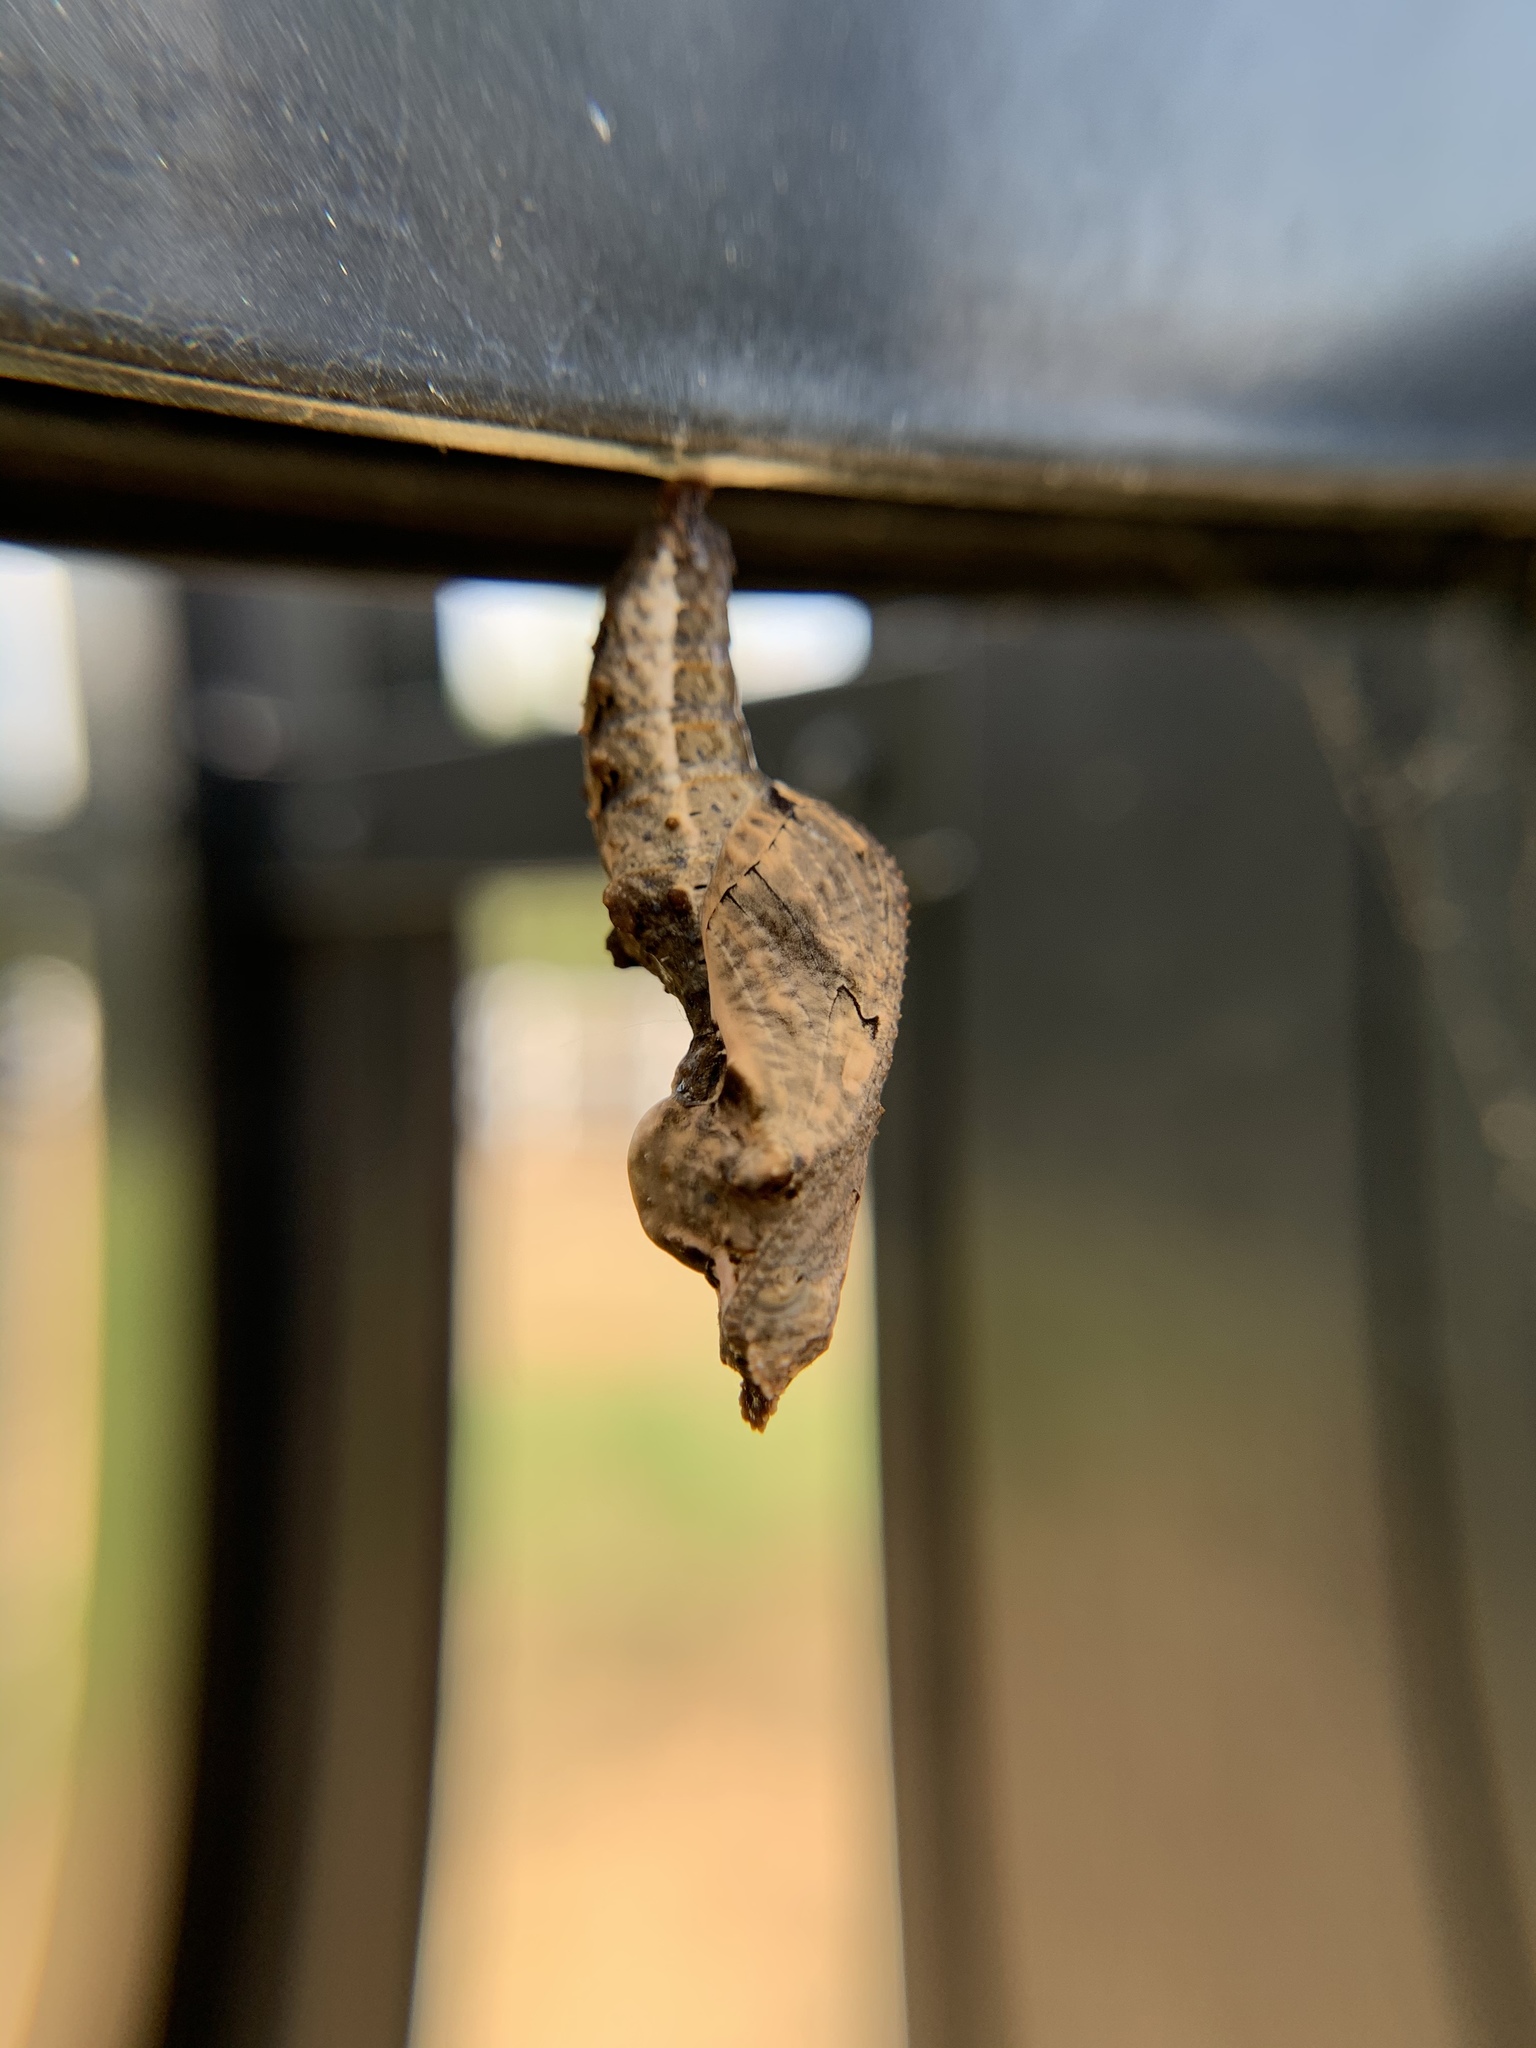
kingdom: Animalia
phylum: Arthropoda
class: Insecta
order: Lepidoptera
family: Nymphalidae
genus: Dione
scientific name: Dione vanillae
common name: Gulf fritillary
